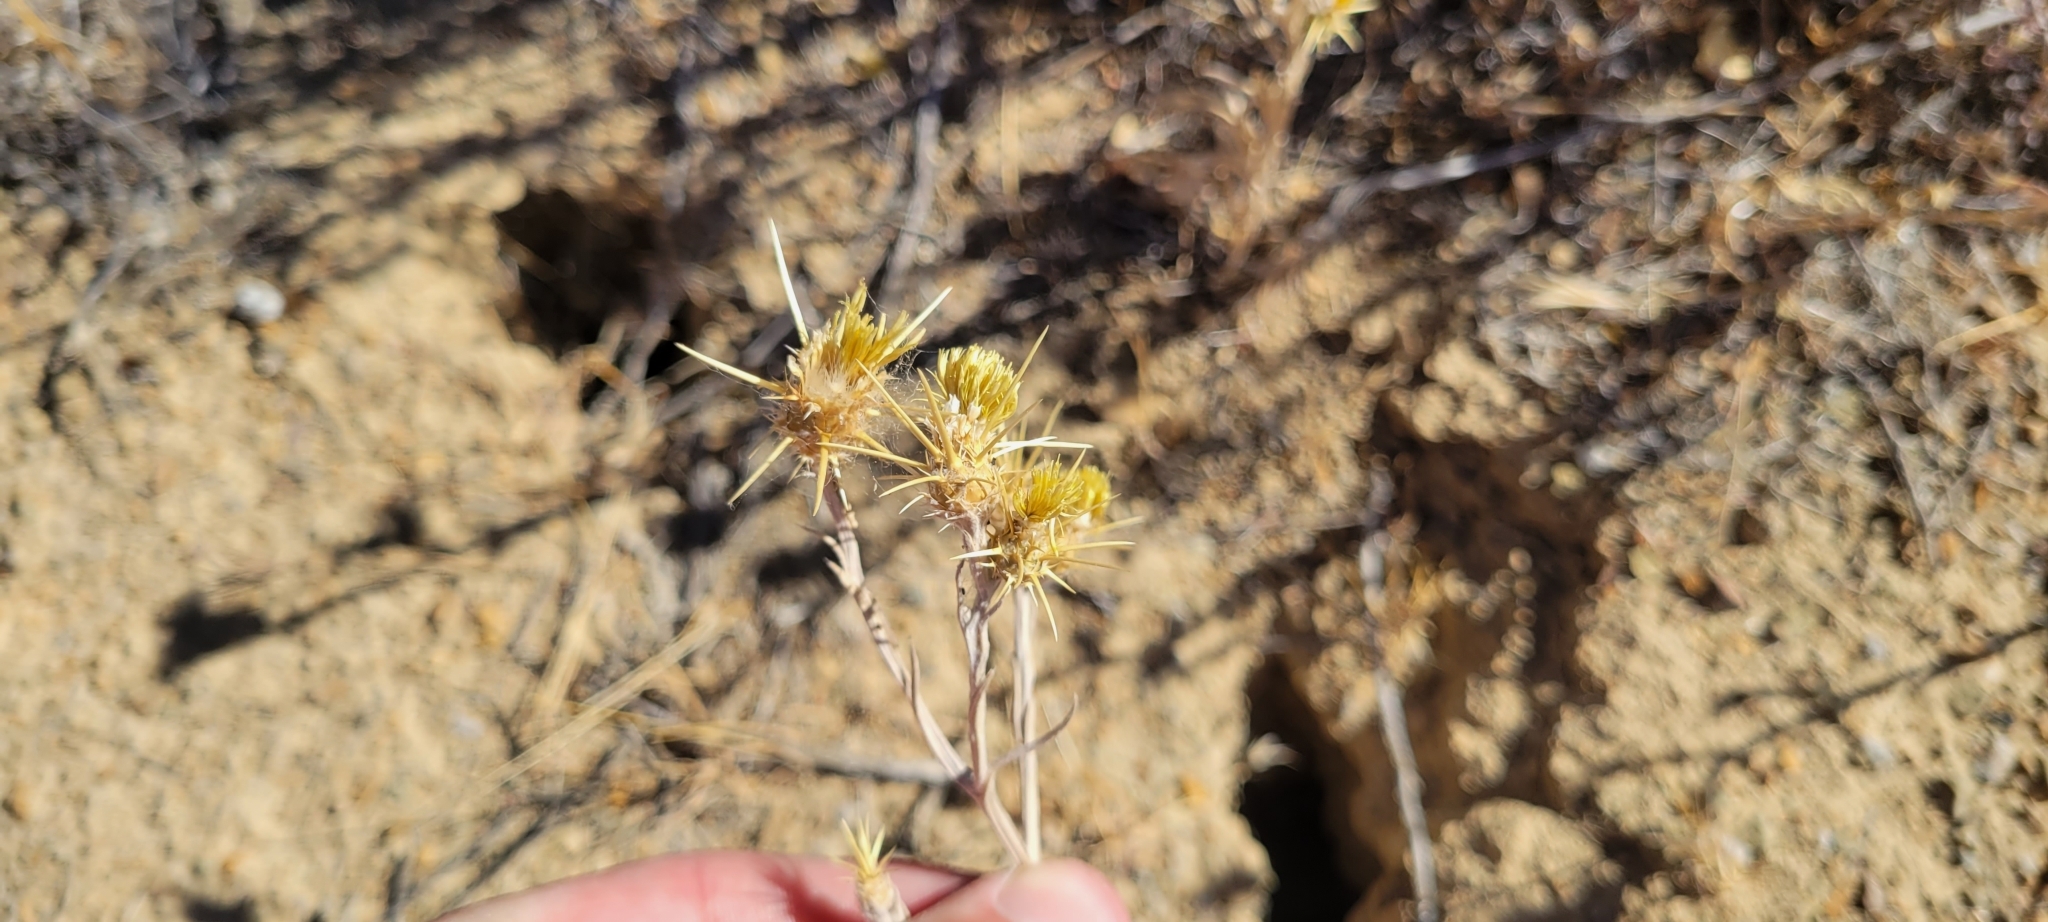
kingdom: Plantae
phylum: Tracheophyta
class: Magnoliopsida
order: Asterales
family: Asteraceae
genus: Centaurea
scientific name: Centaurea solstitialis
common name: Yellow star-thistle
